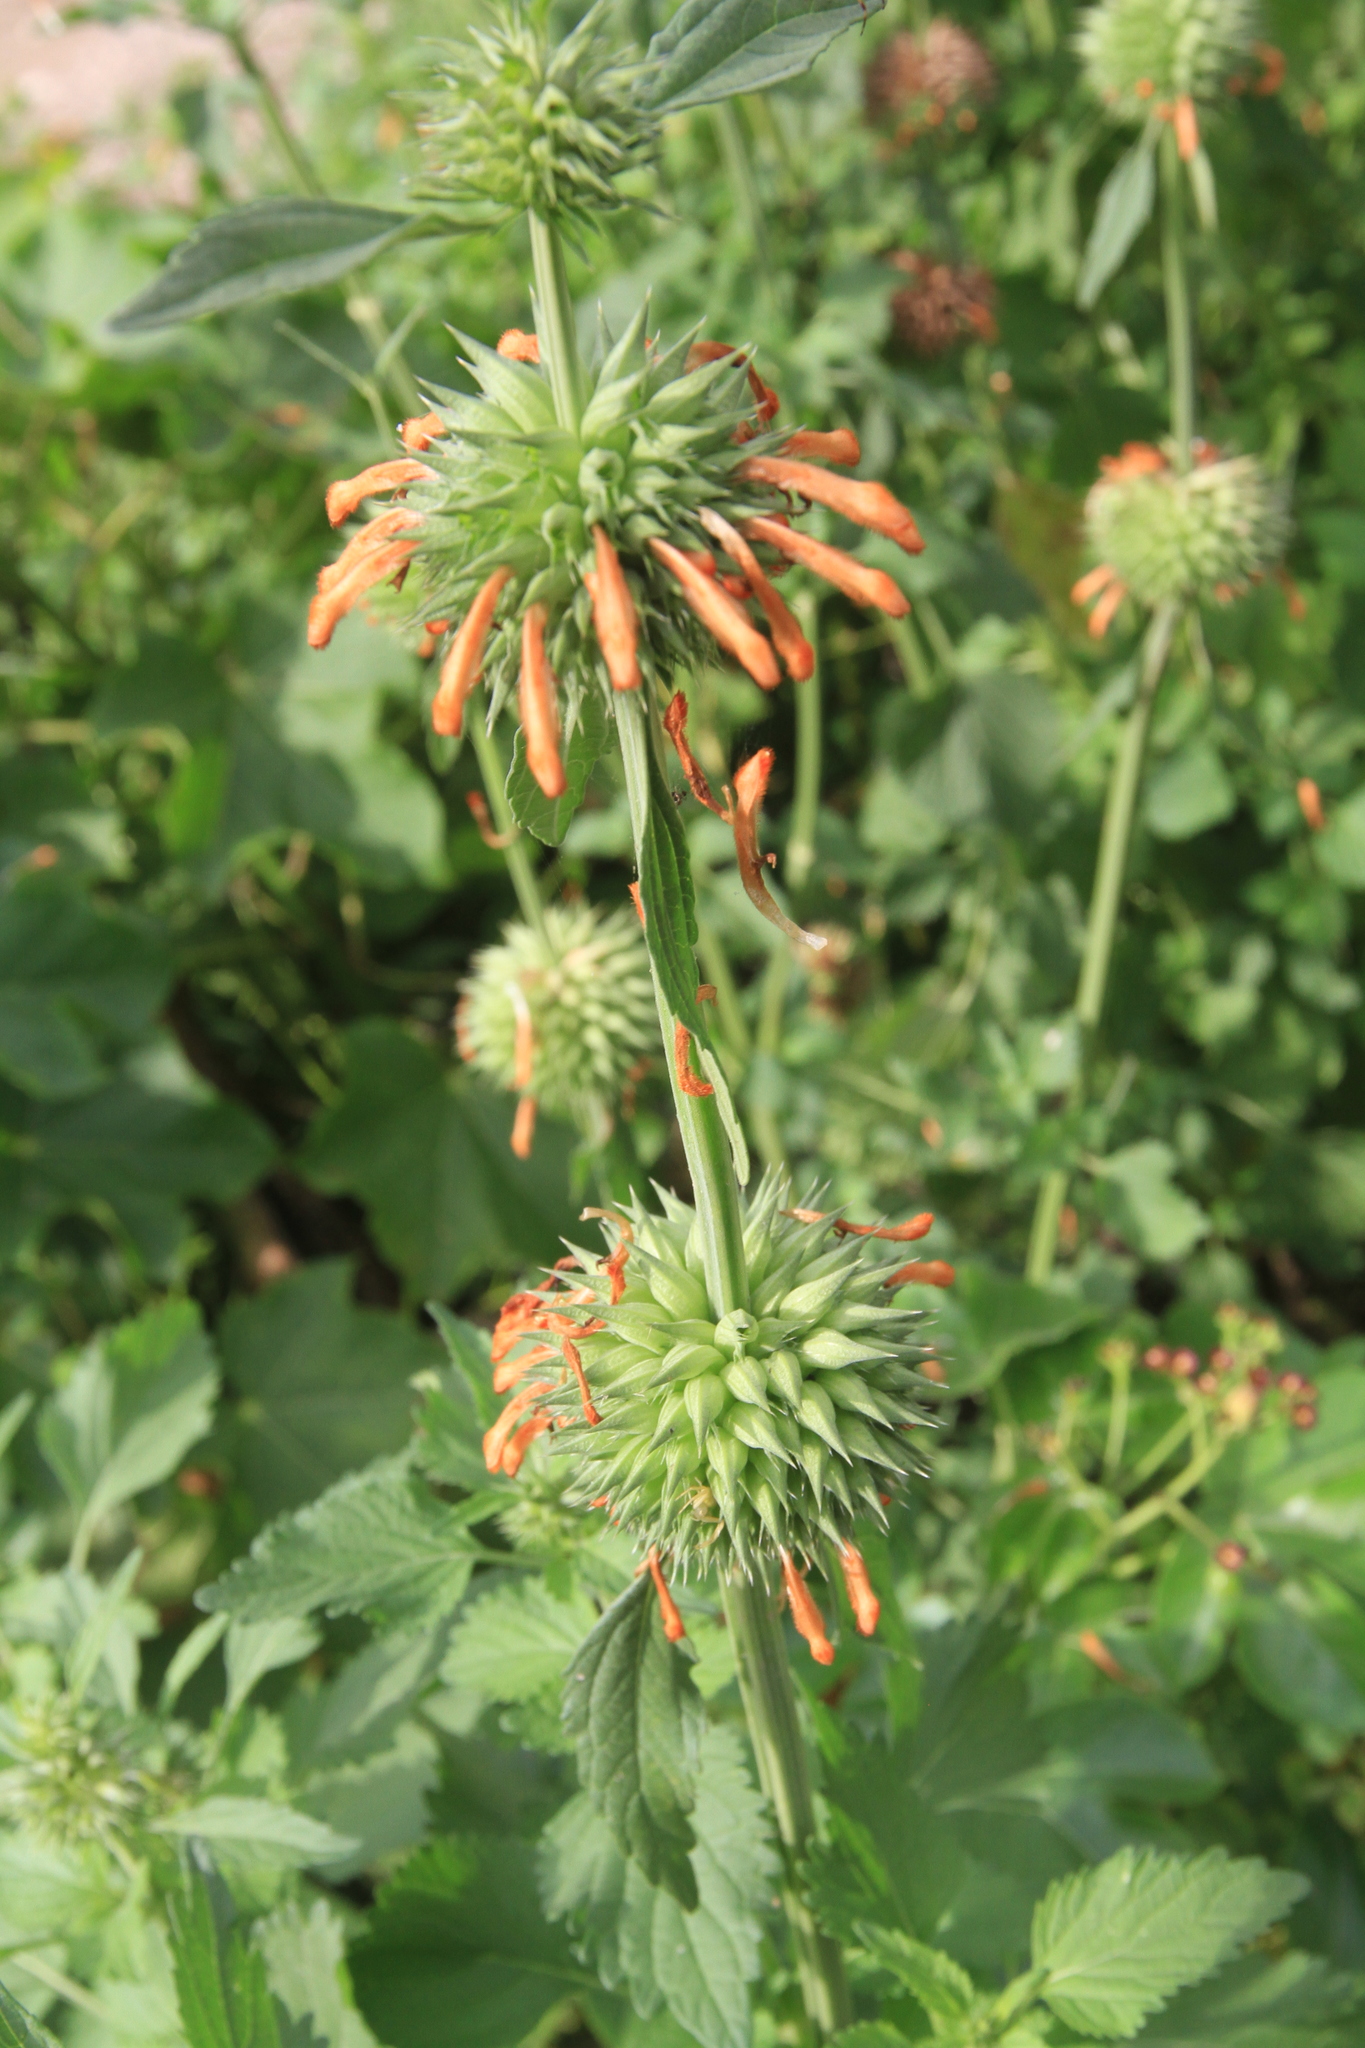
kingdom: Plantae
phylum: Tracheophyta
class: Magnoliopsida
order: Lamiales
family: Lamiaceae
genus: Leonotis
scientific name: Leonotis nepetifolia
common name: Christmas candlestick
